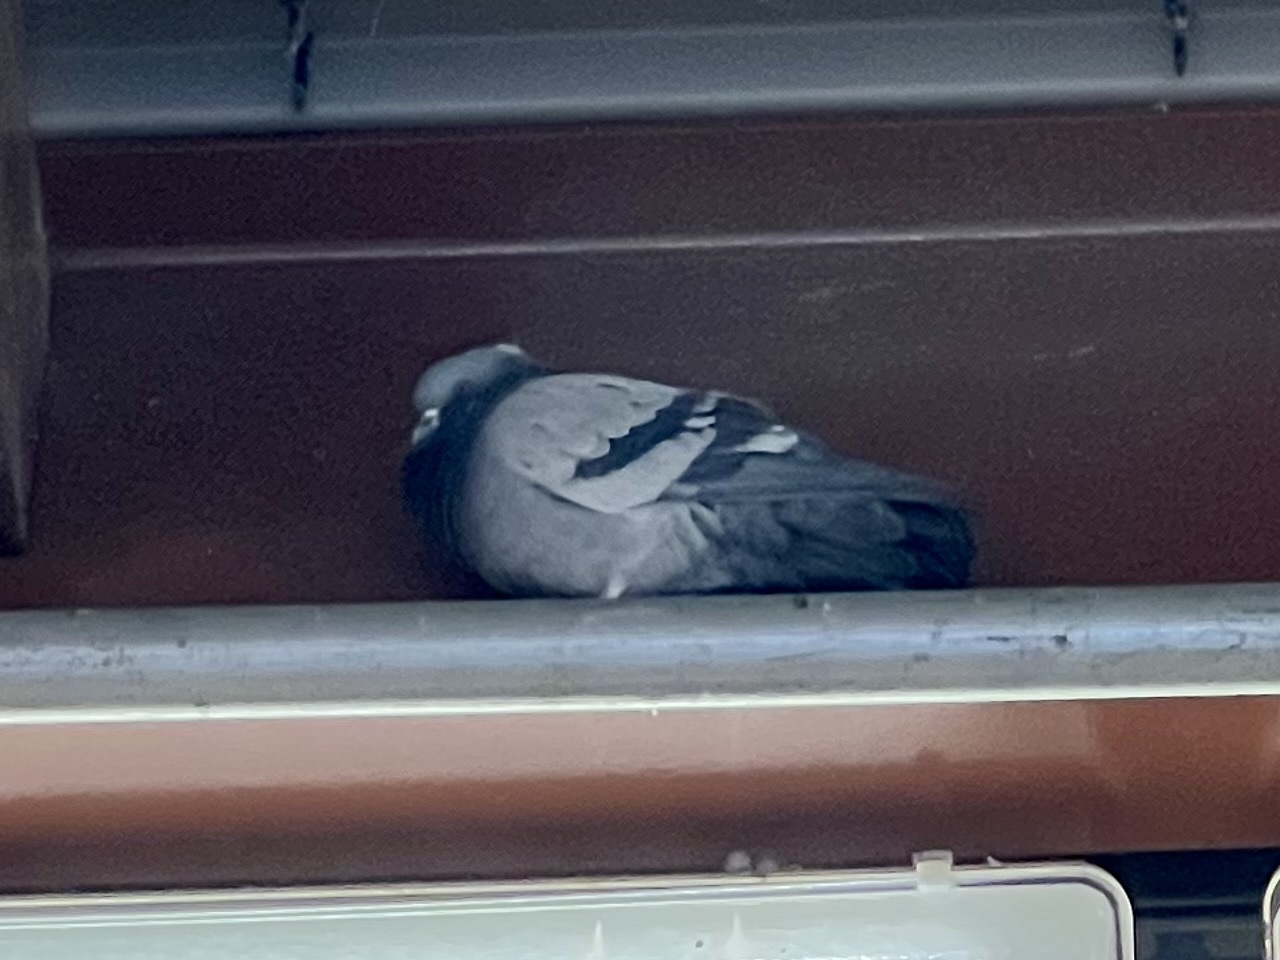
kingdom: Animalia
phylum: Chordata
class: Aves
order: Columbiformes
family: Columbidae
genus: Columba
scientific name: Columba livia
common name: Rock pigeon
